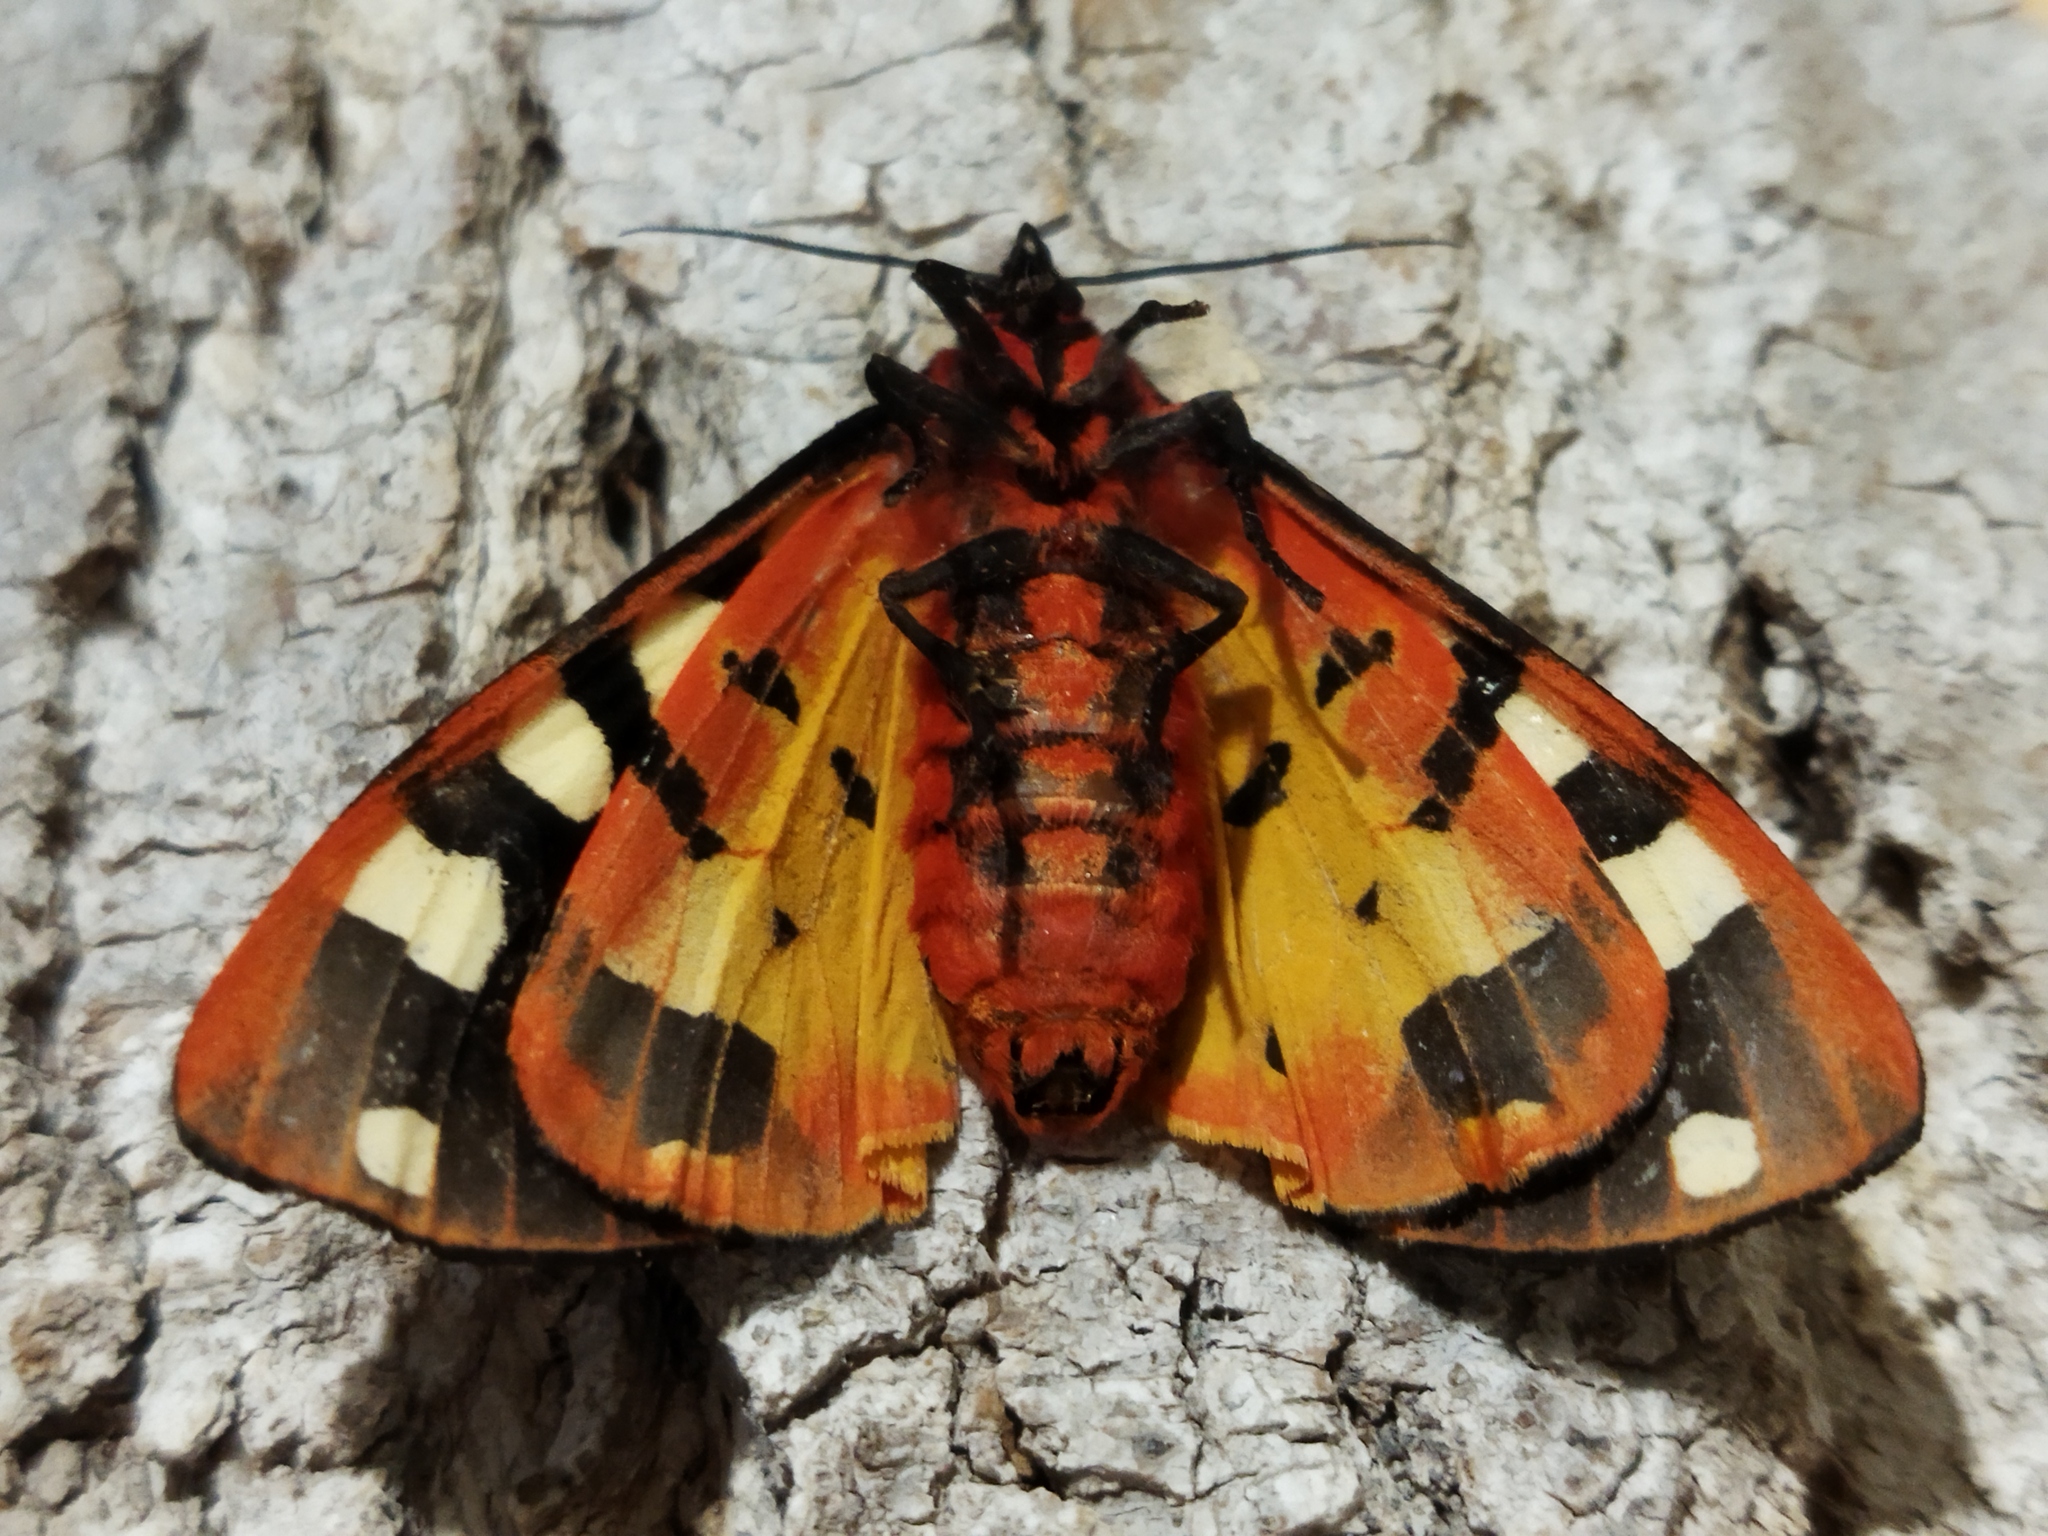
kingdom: Animalia
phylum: Arthropoda
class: Insecta
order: Lepidoptera
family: Erebidae
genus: Epicallia
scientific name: Epicallia villica
